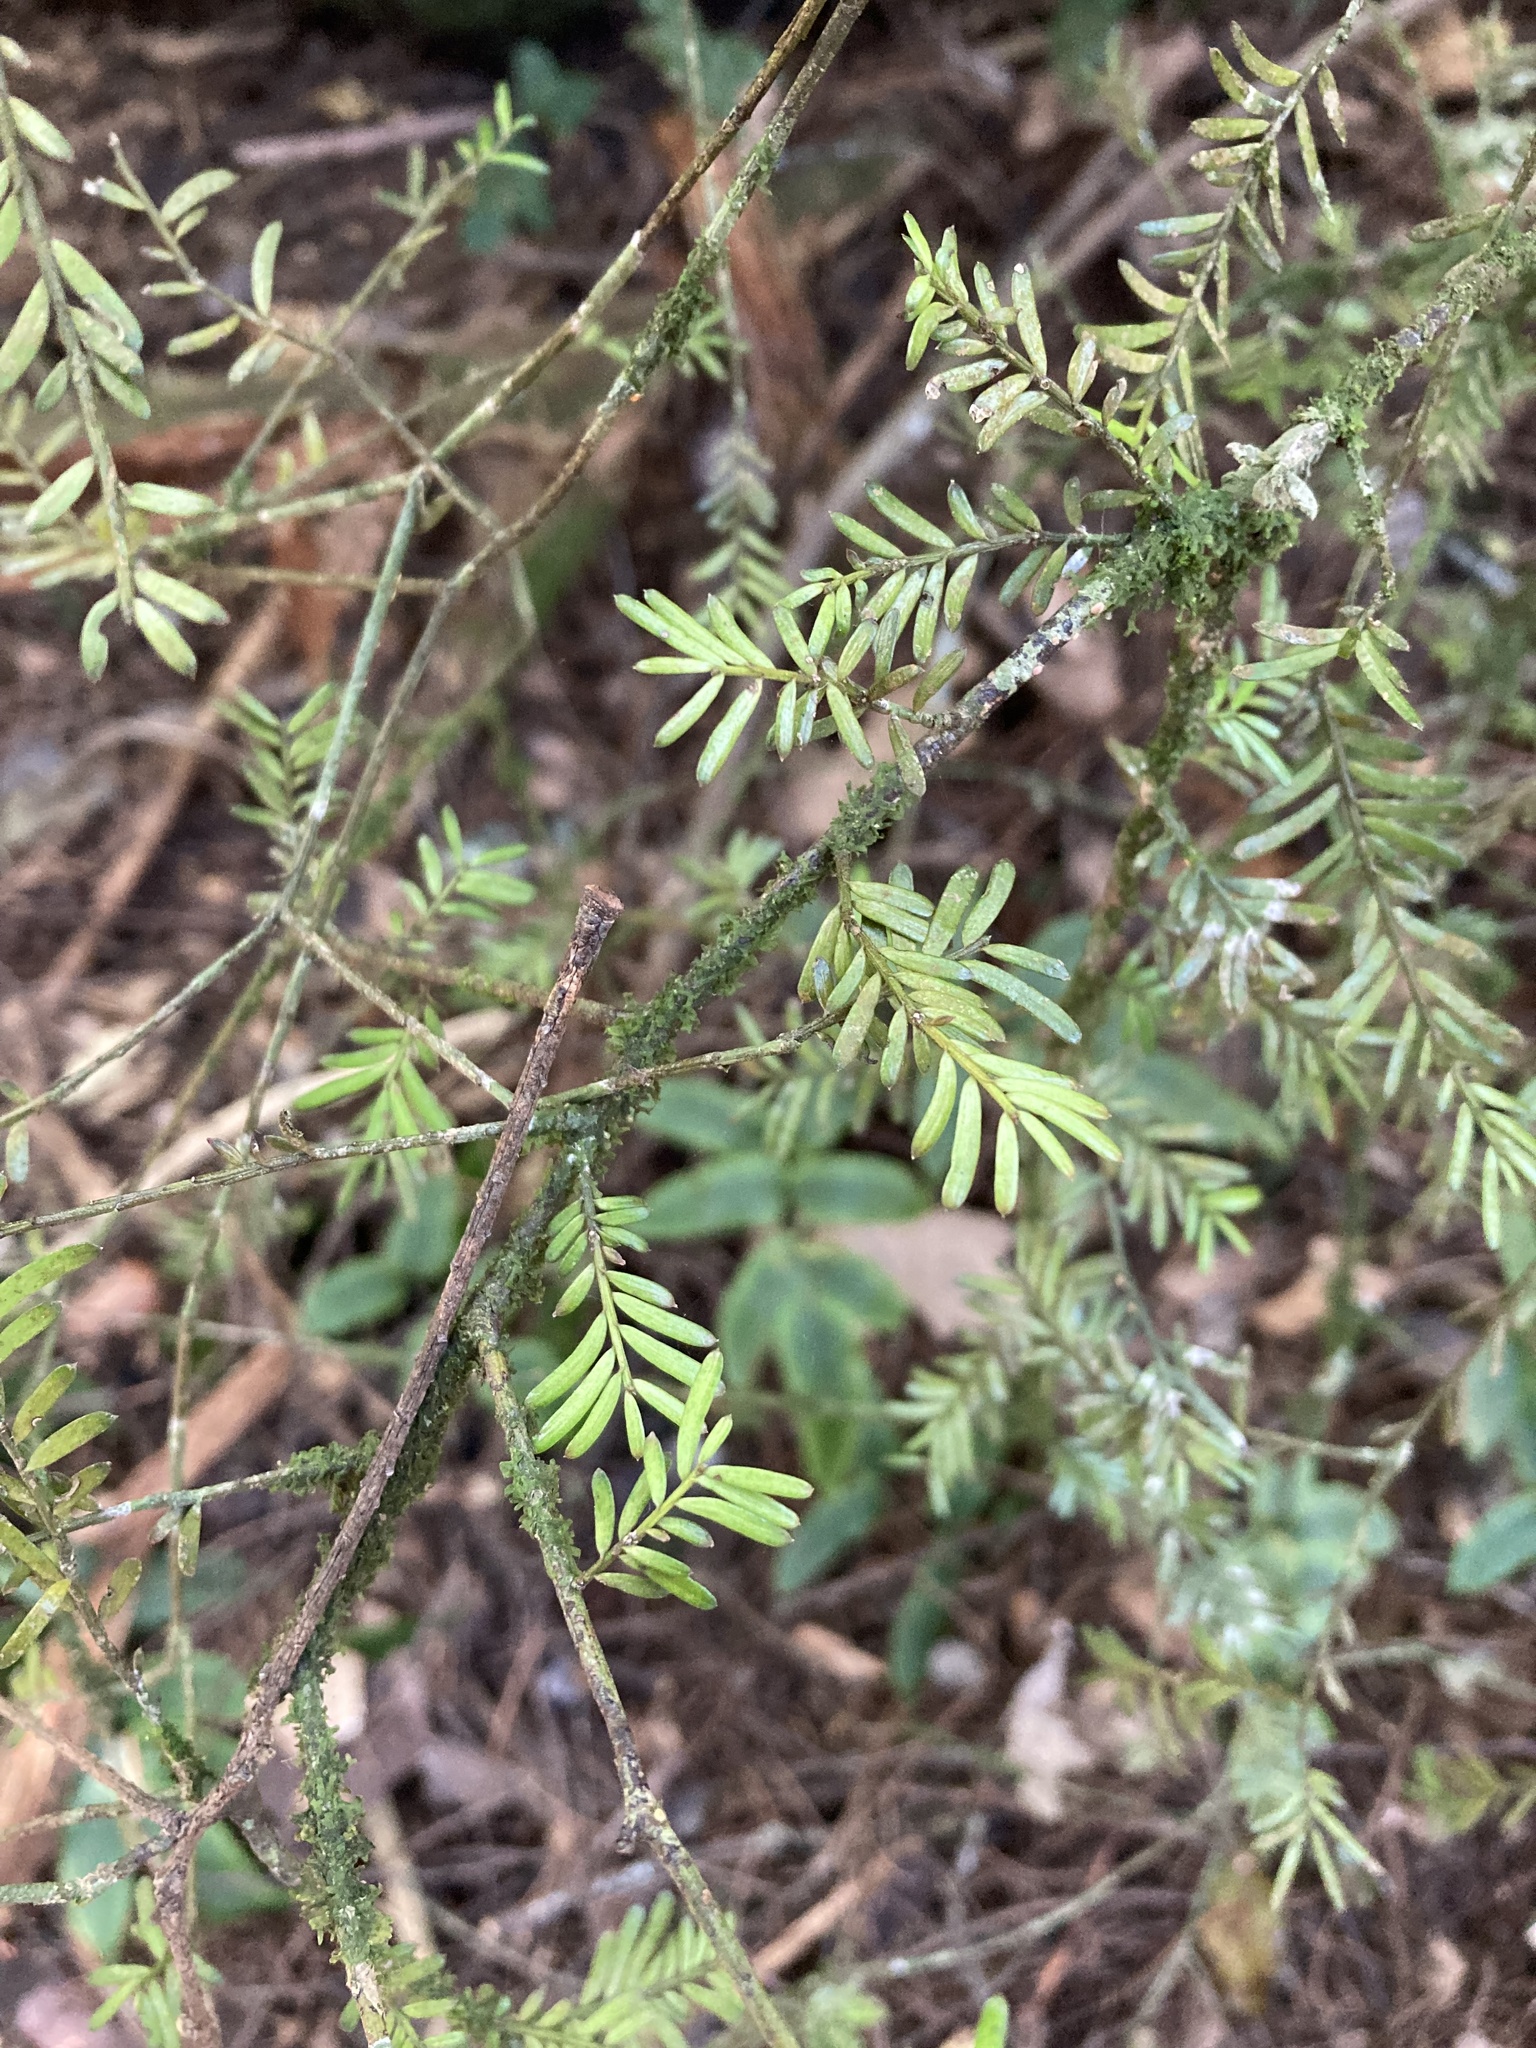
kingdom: Plantae
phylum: Tracheophyta
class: Pinopsida
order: Pinales
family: Podocarpaceae
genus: Prumnopitys
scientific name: Prumnopitys taxifolia
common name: Matai
